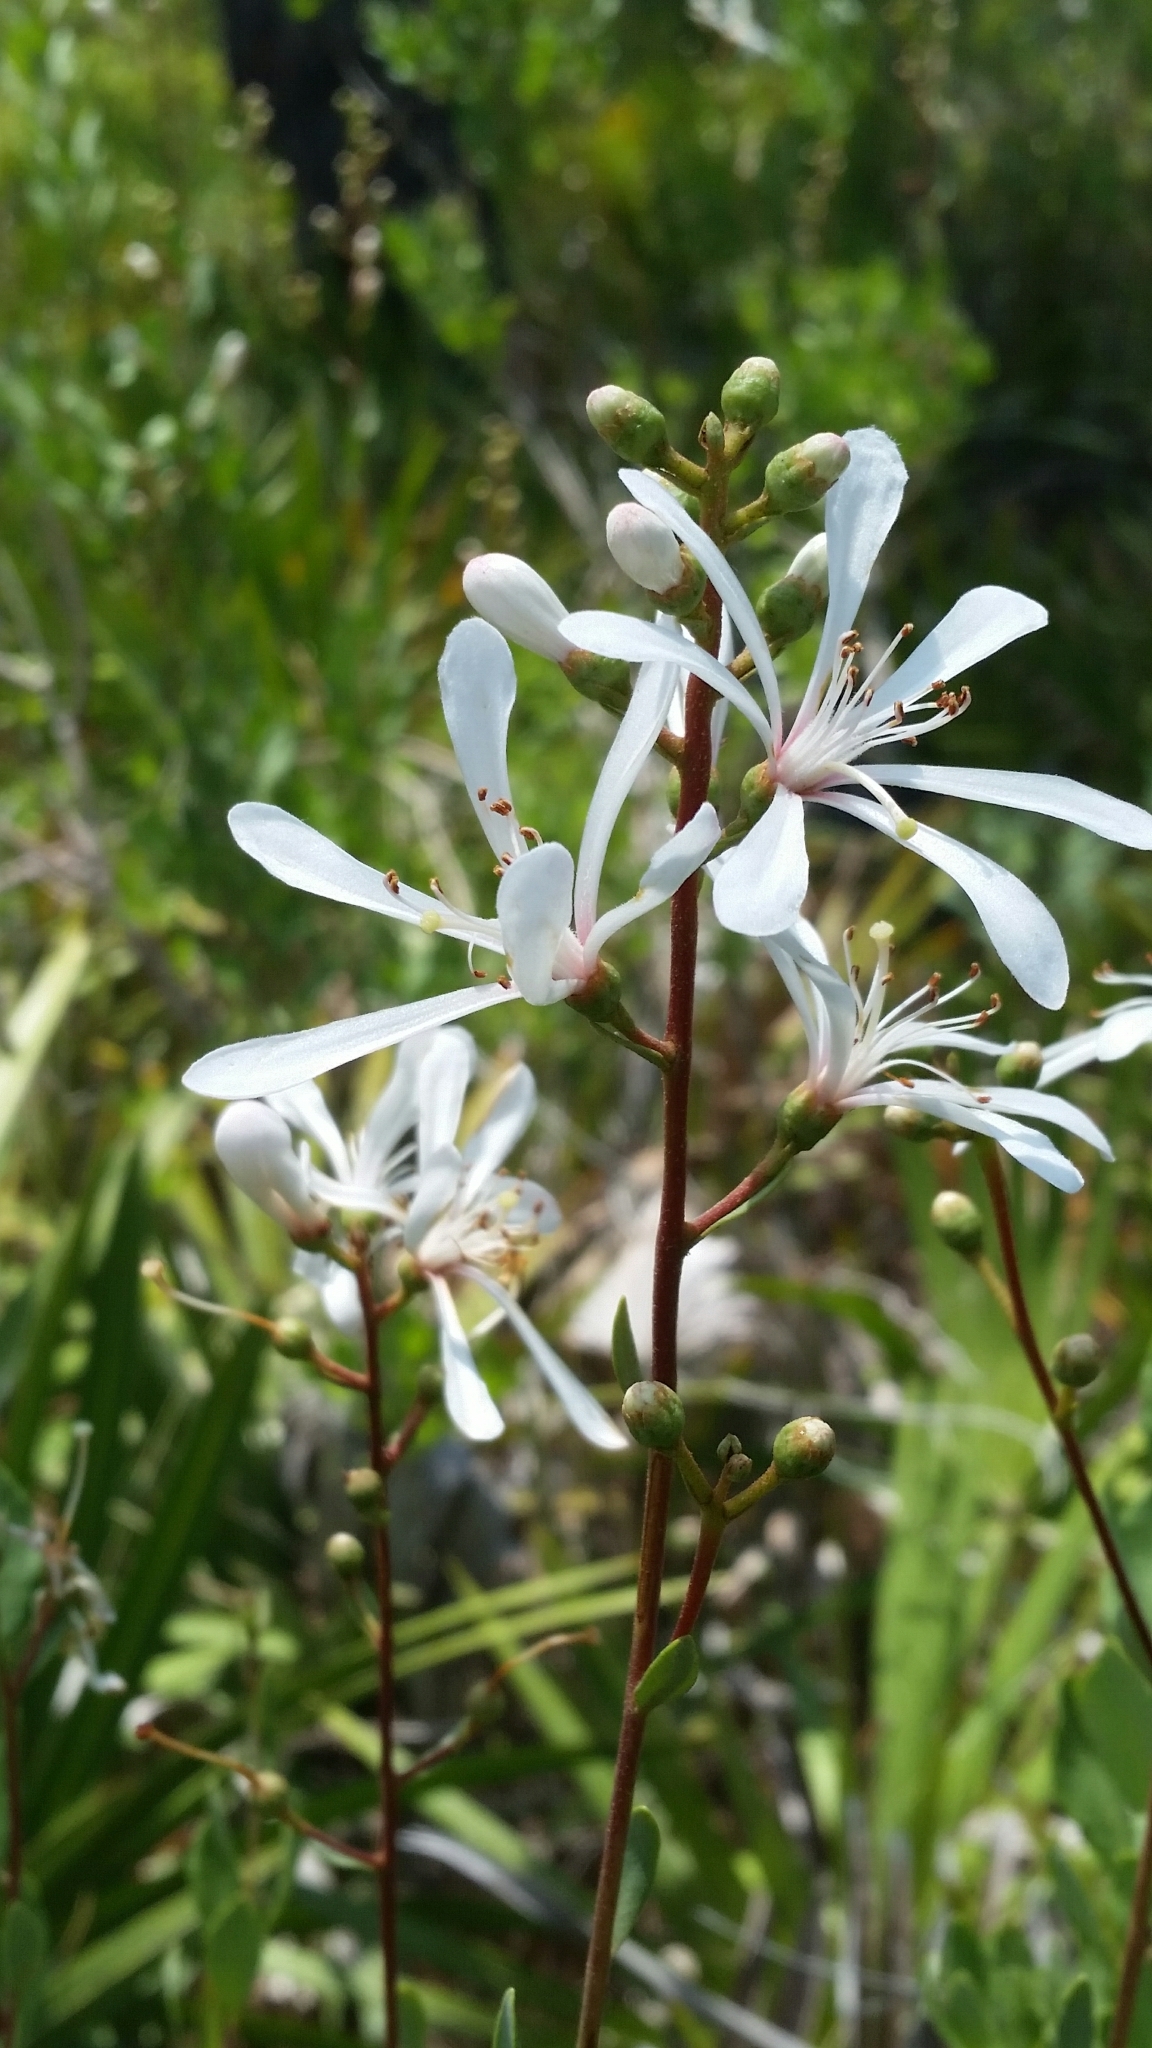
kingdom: Plantae
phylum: Tracheophyta
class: Magnoliopsida
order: Ericales
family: Ericaceae
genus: Bejaria
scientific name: Bejaria racemosa
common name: Tarflower
